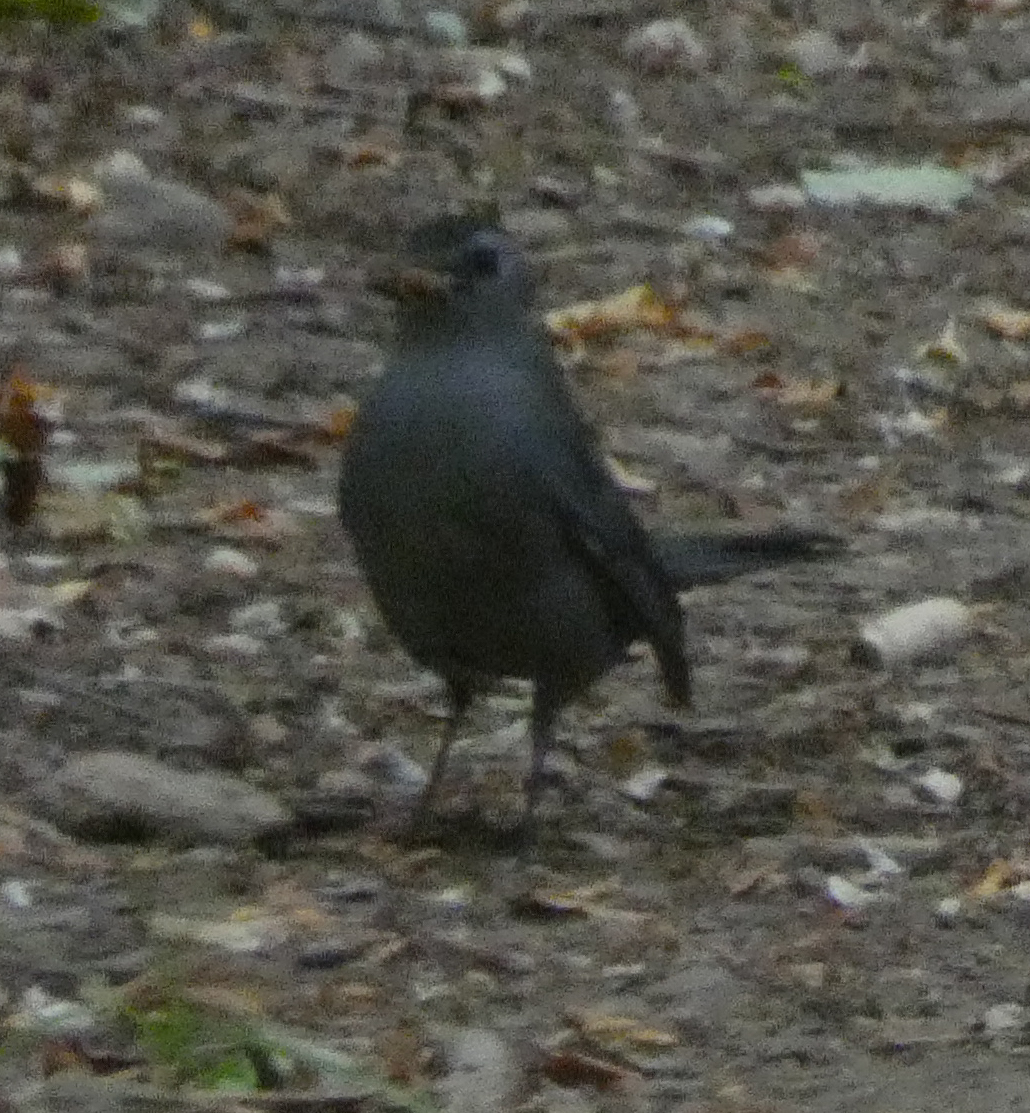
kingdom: Animalia
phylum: Chordata
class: Aves
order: Passeriformes
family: Mimidae
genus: Dumetella
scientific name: Dumetella carolinensis
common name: Gray catbird
